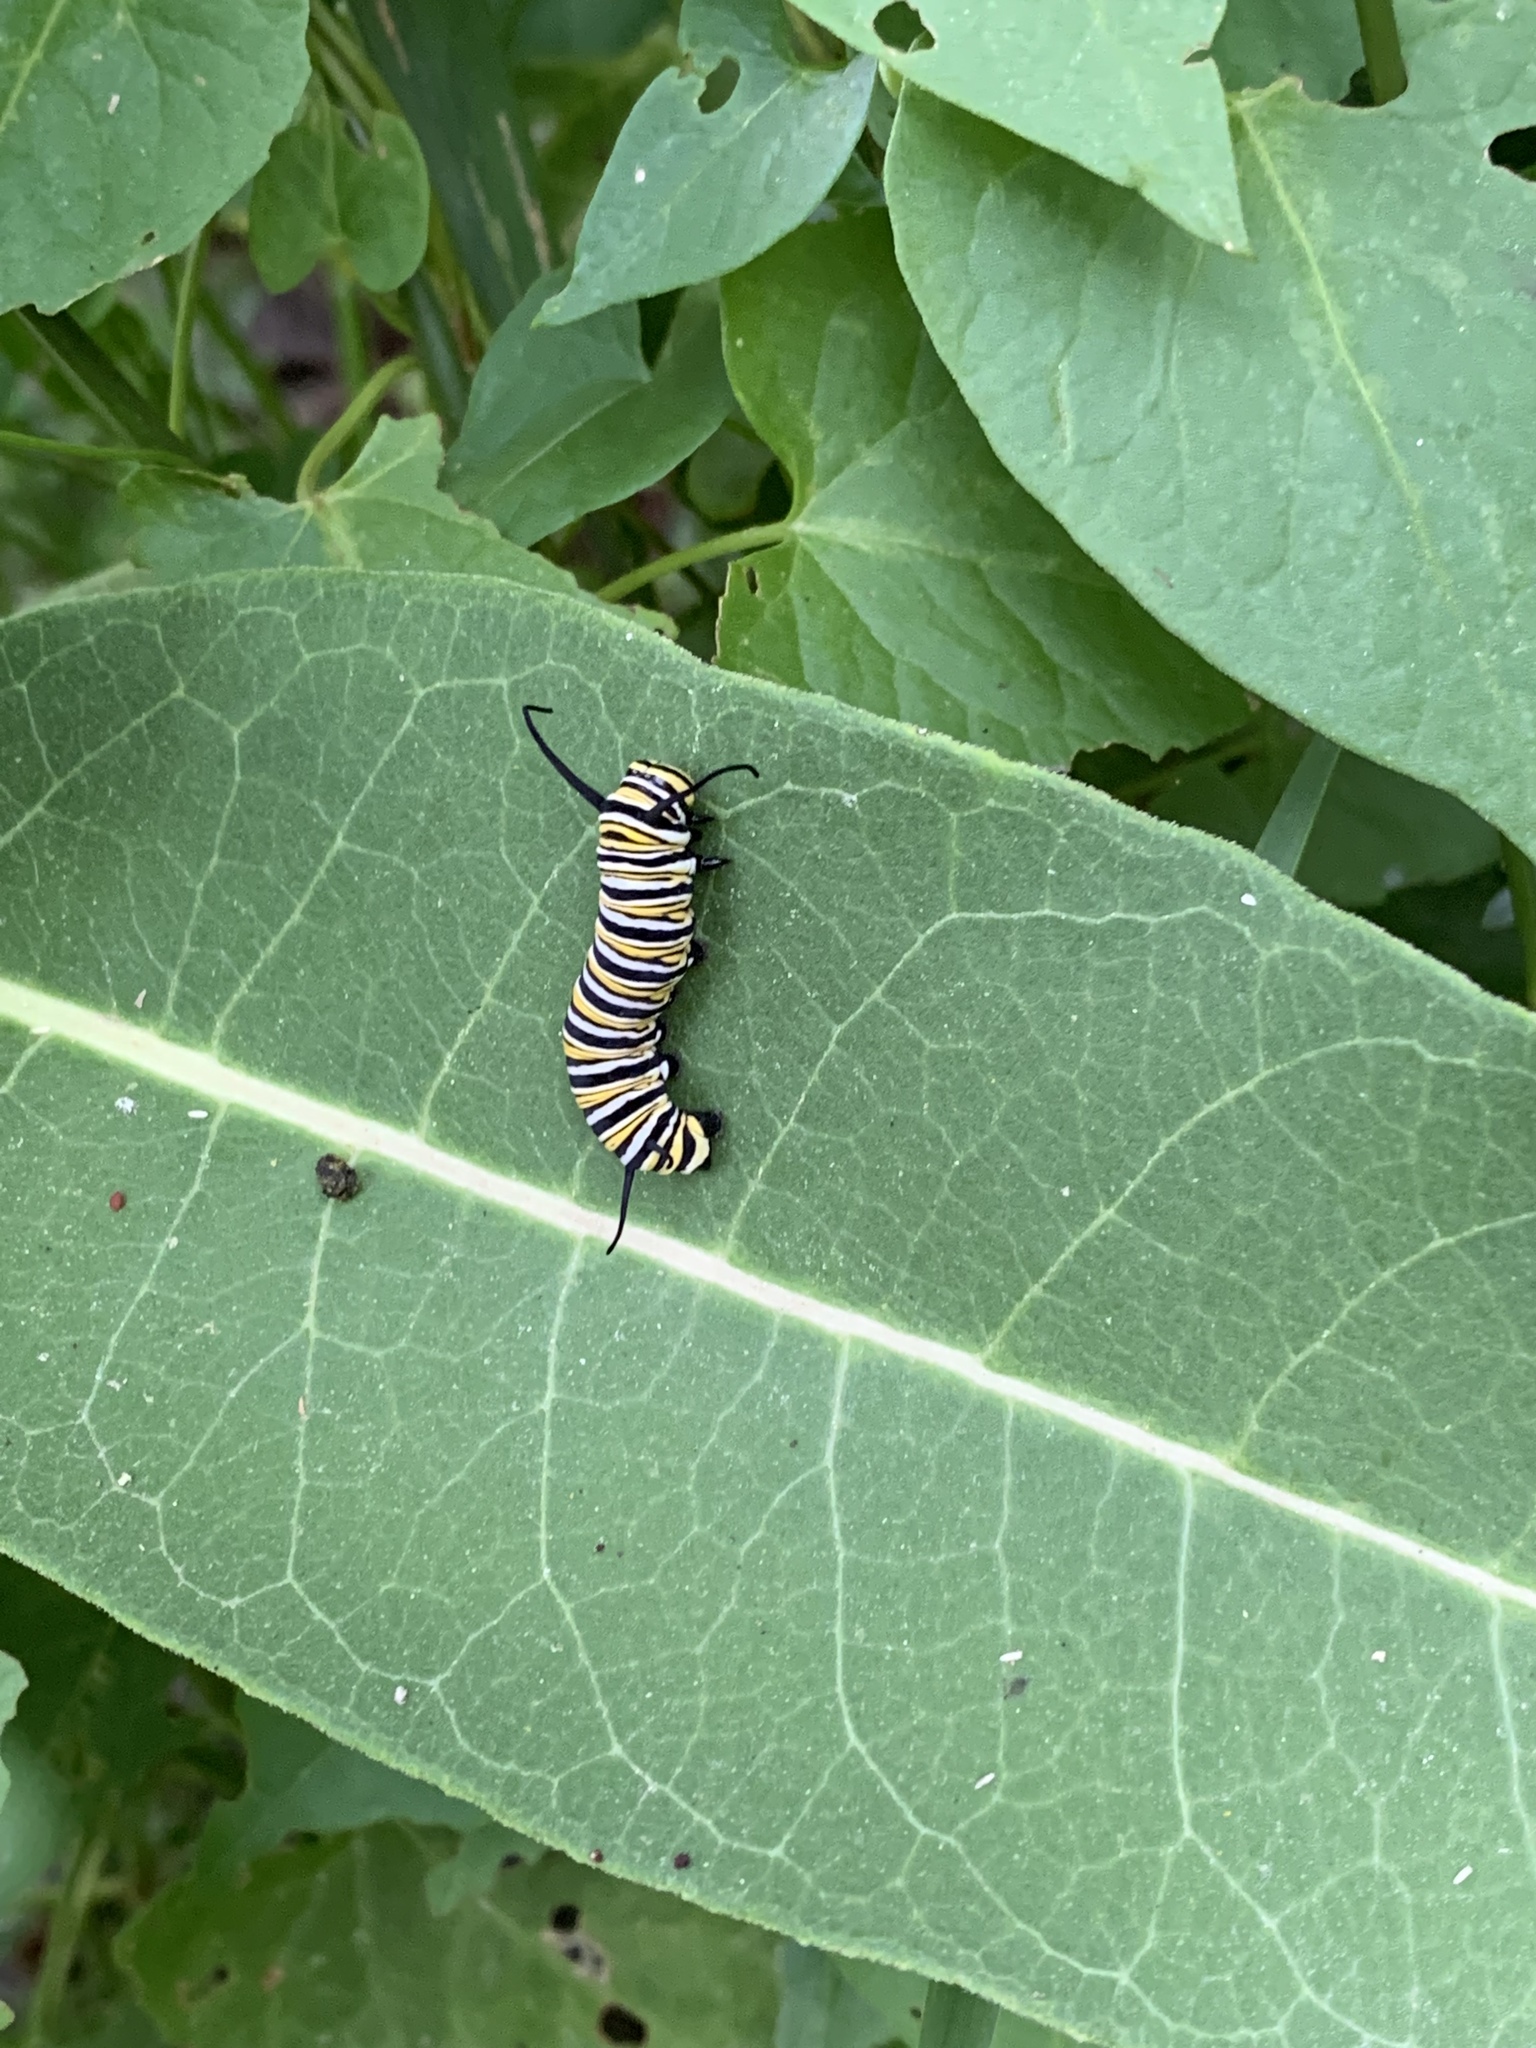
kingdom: Animalia
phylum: Arthropoda
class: Insecta
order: Lepidoptera
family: Nymphalidae
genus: Danaus
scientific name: Danaus plexippus
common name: Monarch
